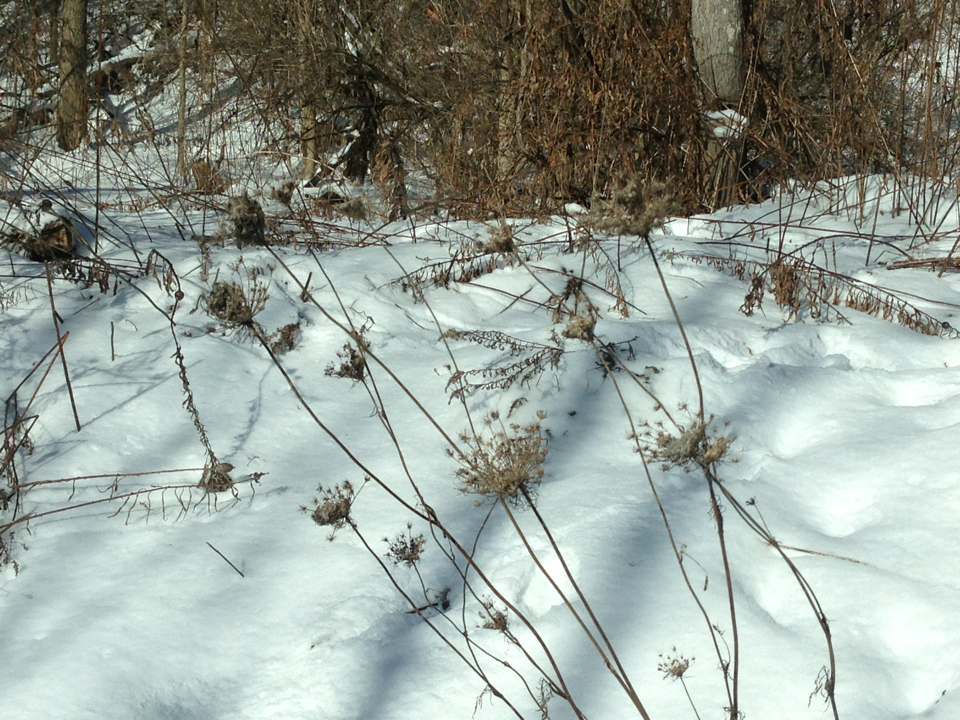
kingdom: Plantae
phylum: Tracheophyta
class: Magnoliopsida
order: Apiales
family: Apiaceae
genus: Daucus
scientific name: Daucus carota
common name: Wild carrot
